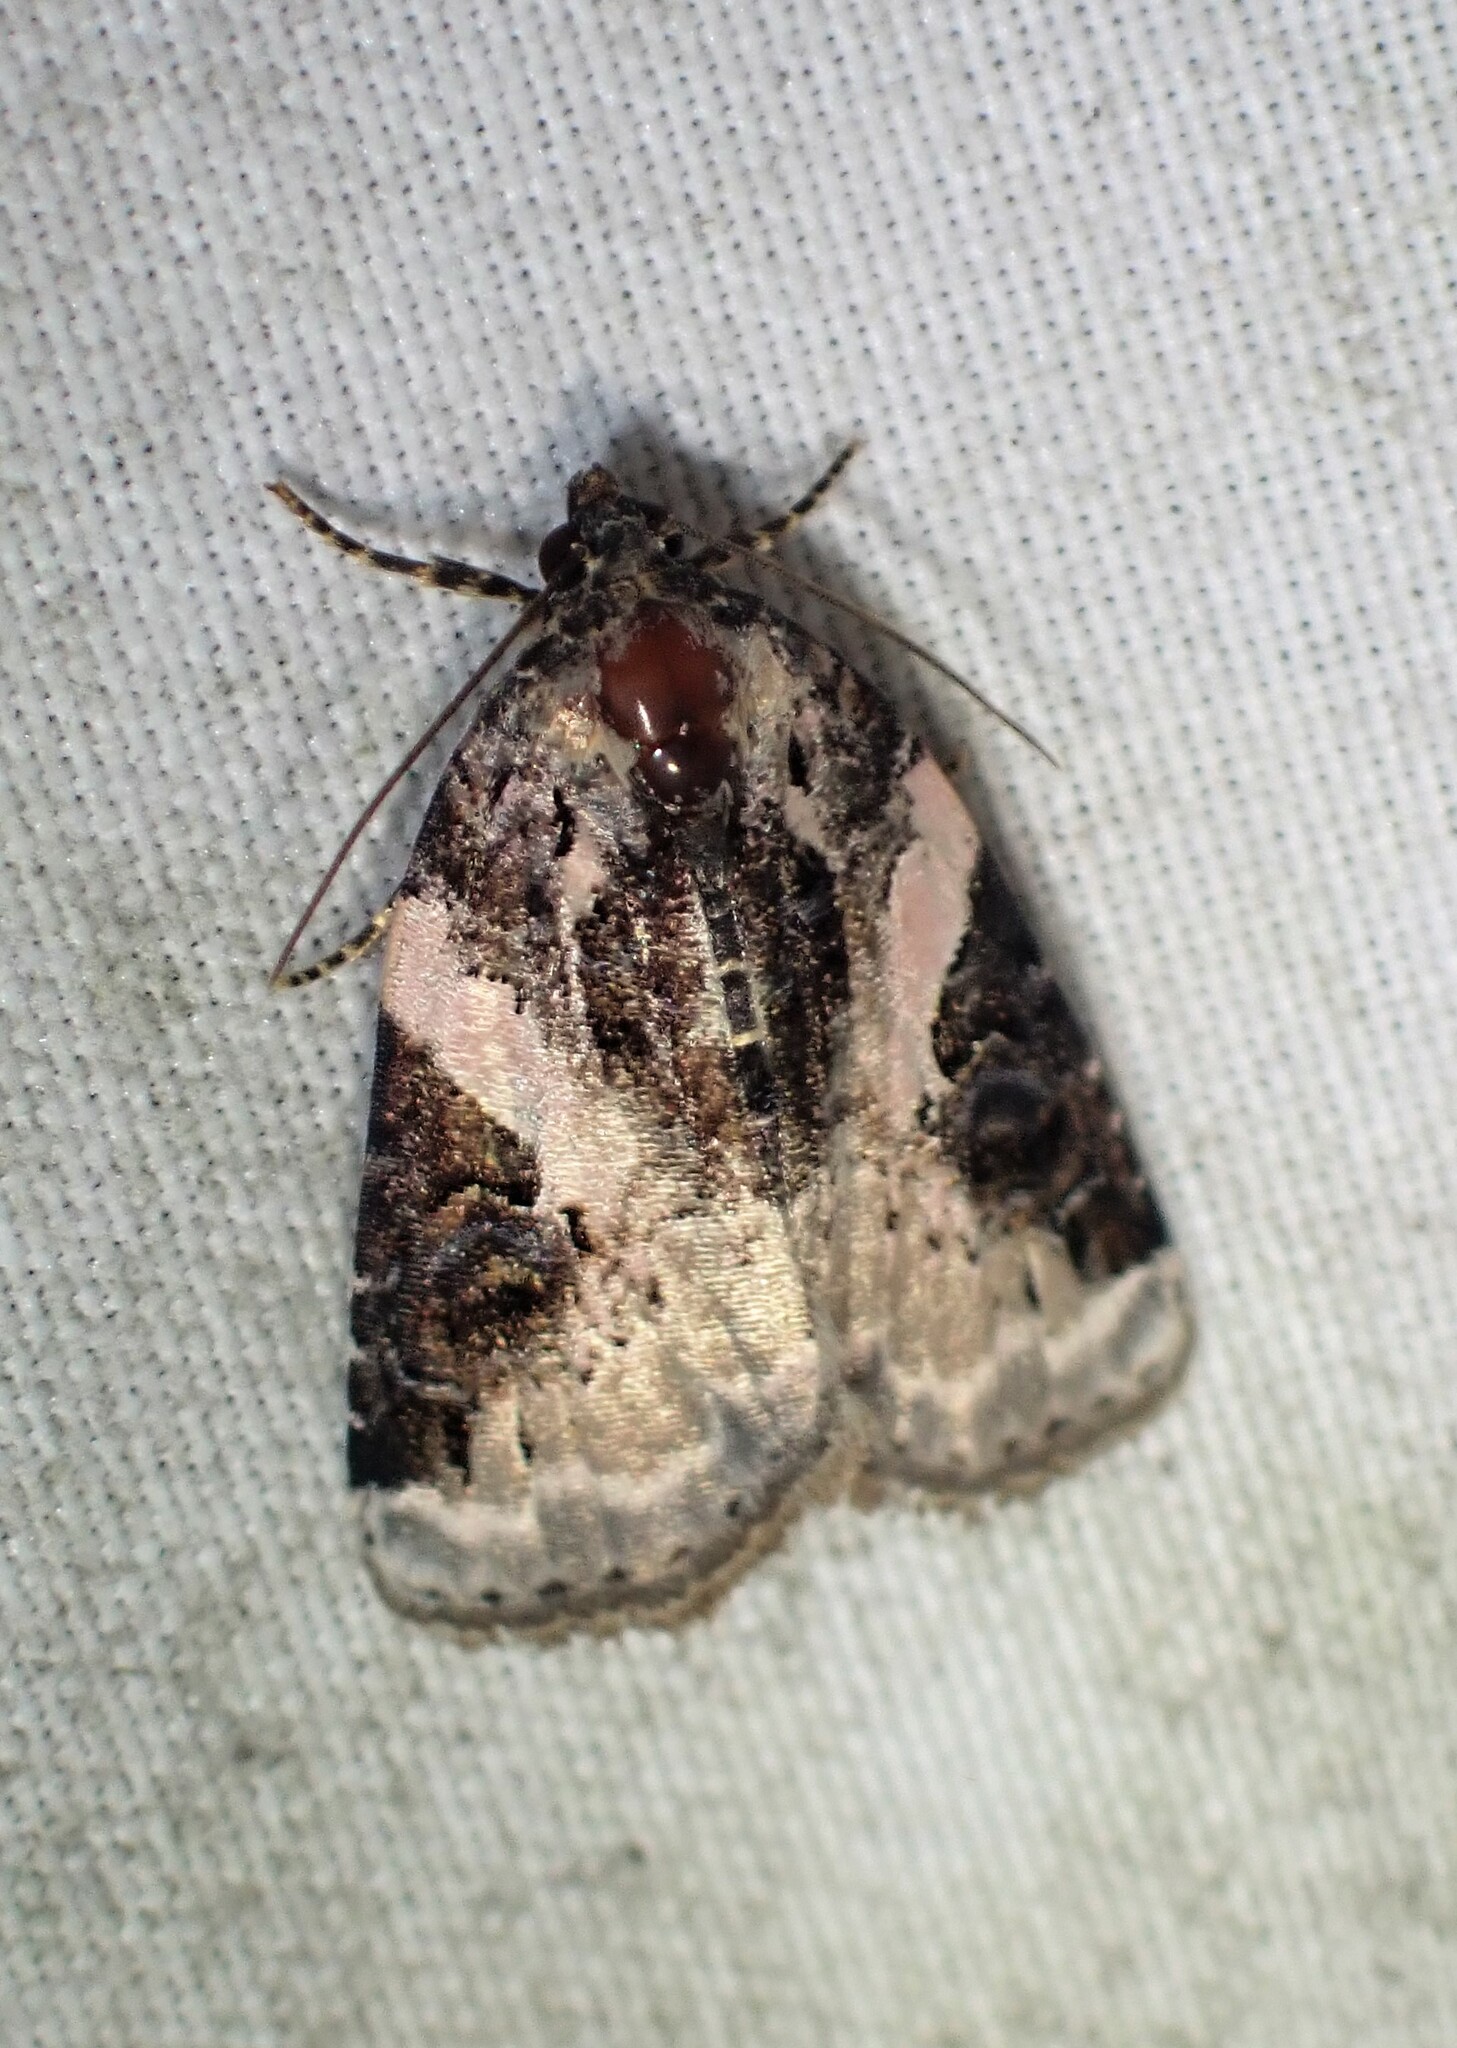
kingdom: Animalia
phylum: Arthropoda
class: Insecta
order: Lepidoptera
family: Noctuidae
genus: Pseudeustrotia
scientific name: Pseudeustrotia carneola
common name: Pink-barred lithacodia moth
